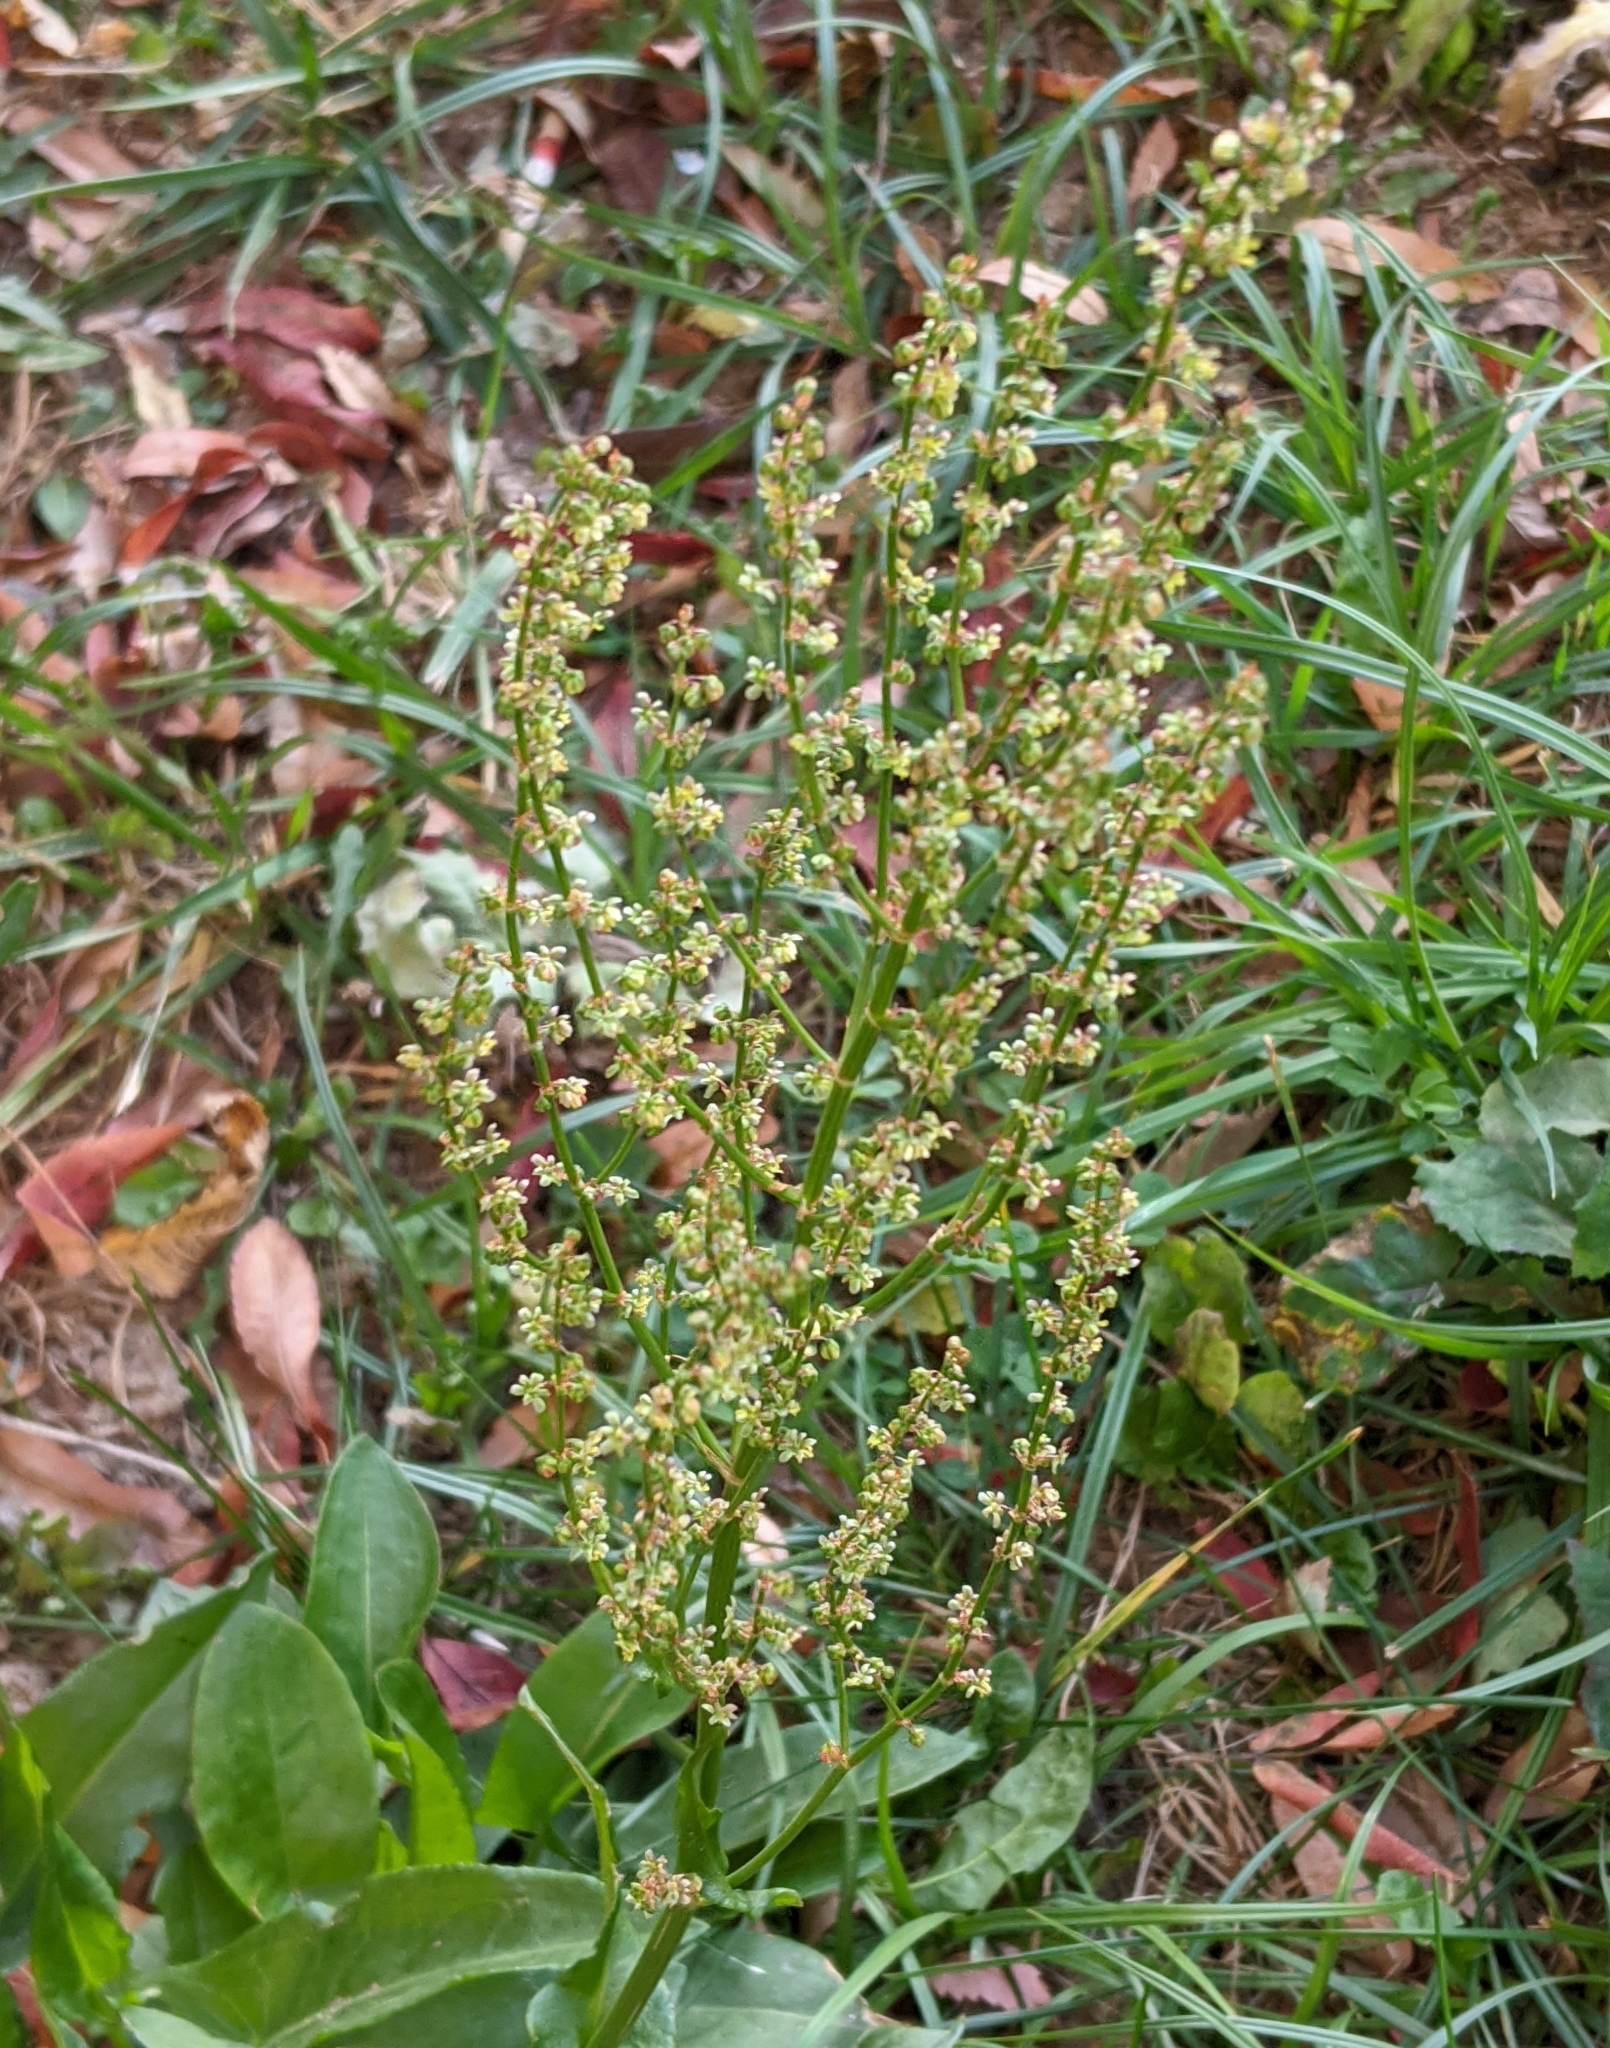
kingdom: Plantae
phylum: Tracheophyta
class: Magnoliopsida
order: Caryophyllales
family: Polygonaceae
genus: Rumex
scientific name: Rumex acetosella
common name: Common sheep sorrel
